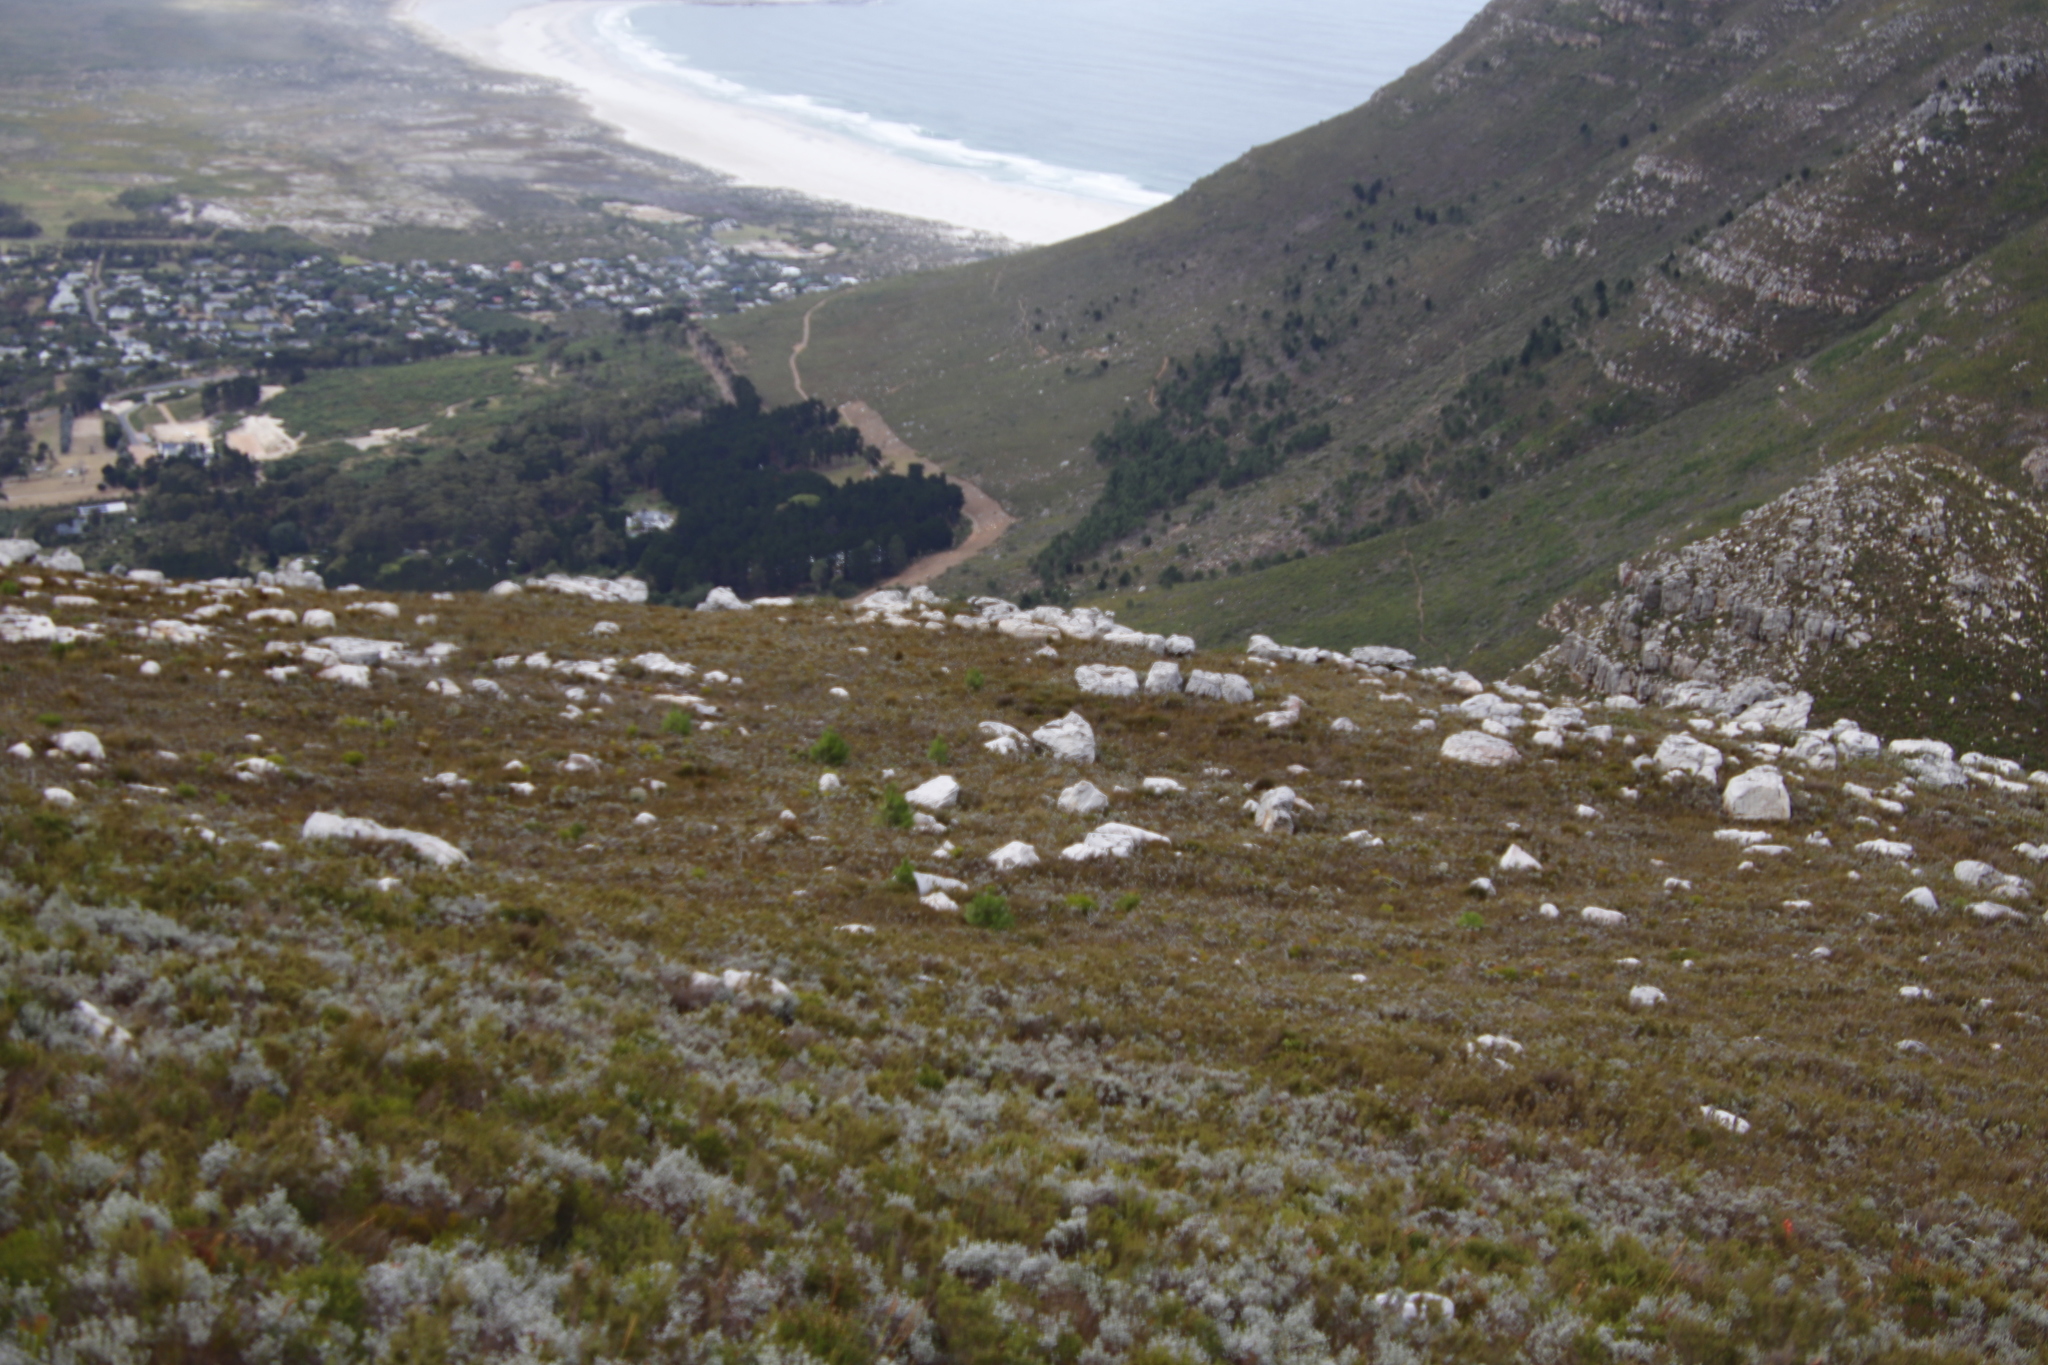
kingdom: Plantae
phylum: Tracheophyta
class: Pinopsida
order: Pinales
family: Pinaceae
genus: Pinus
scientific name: Pinus pinaster
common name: Maritime pine
